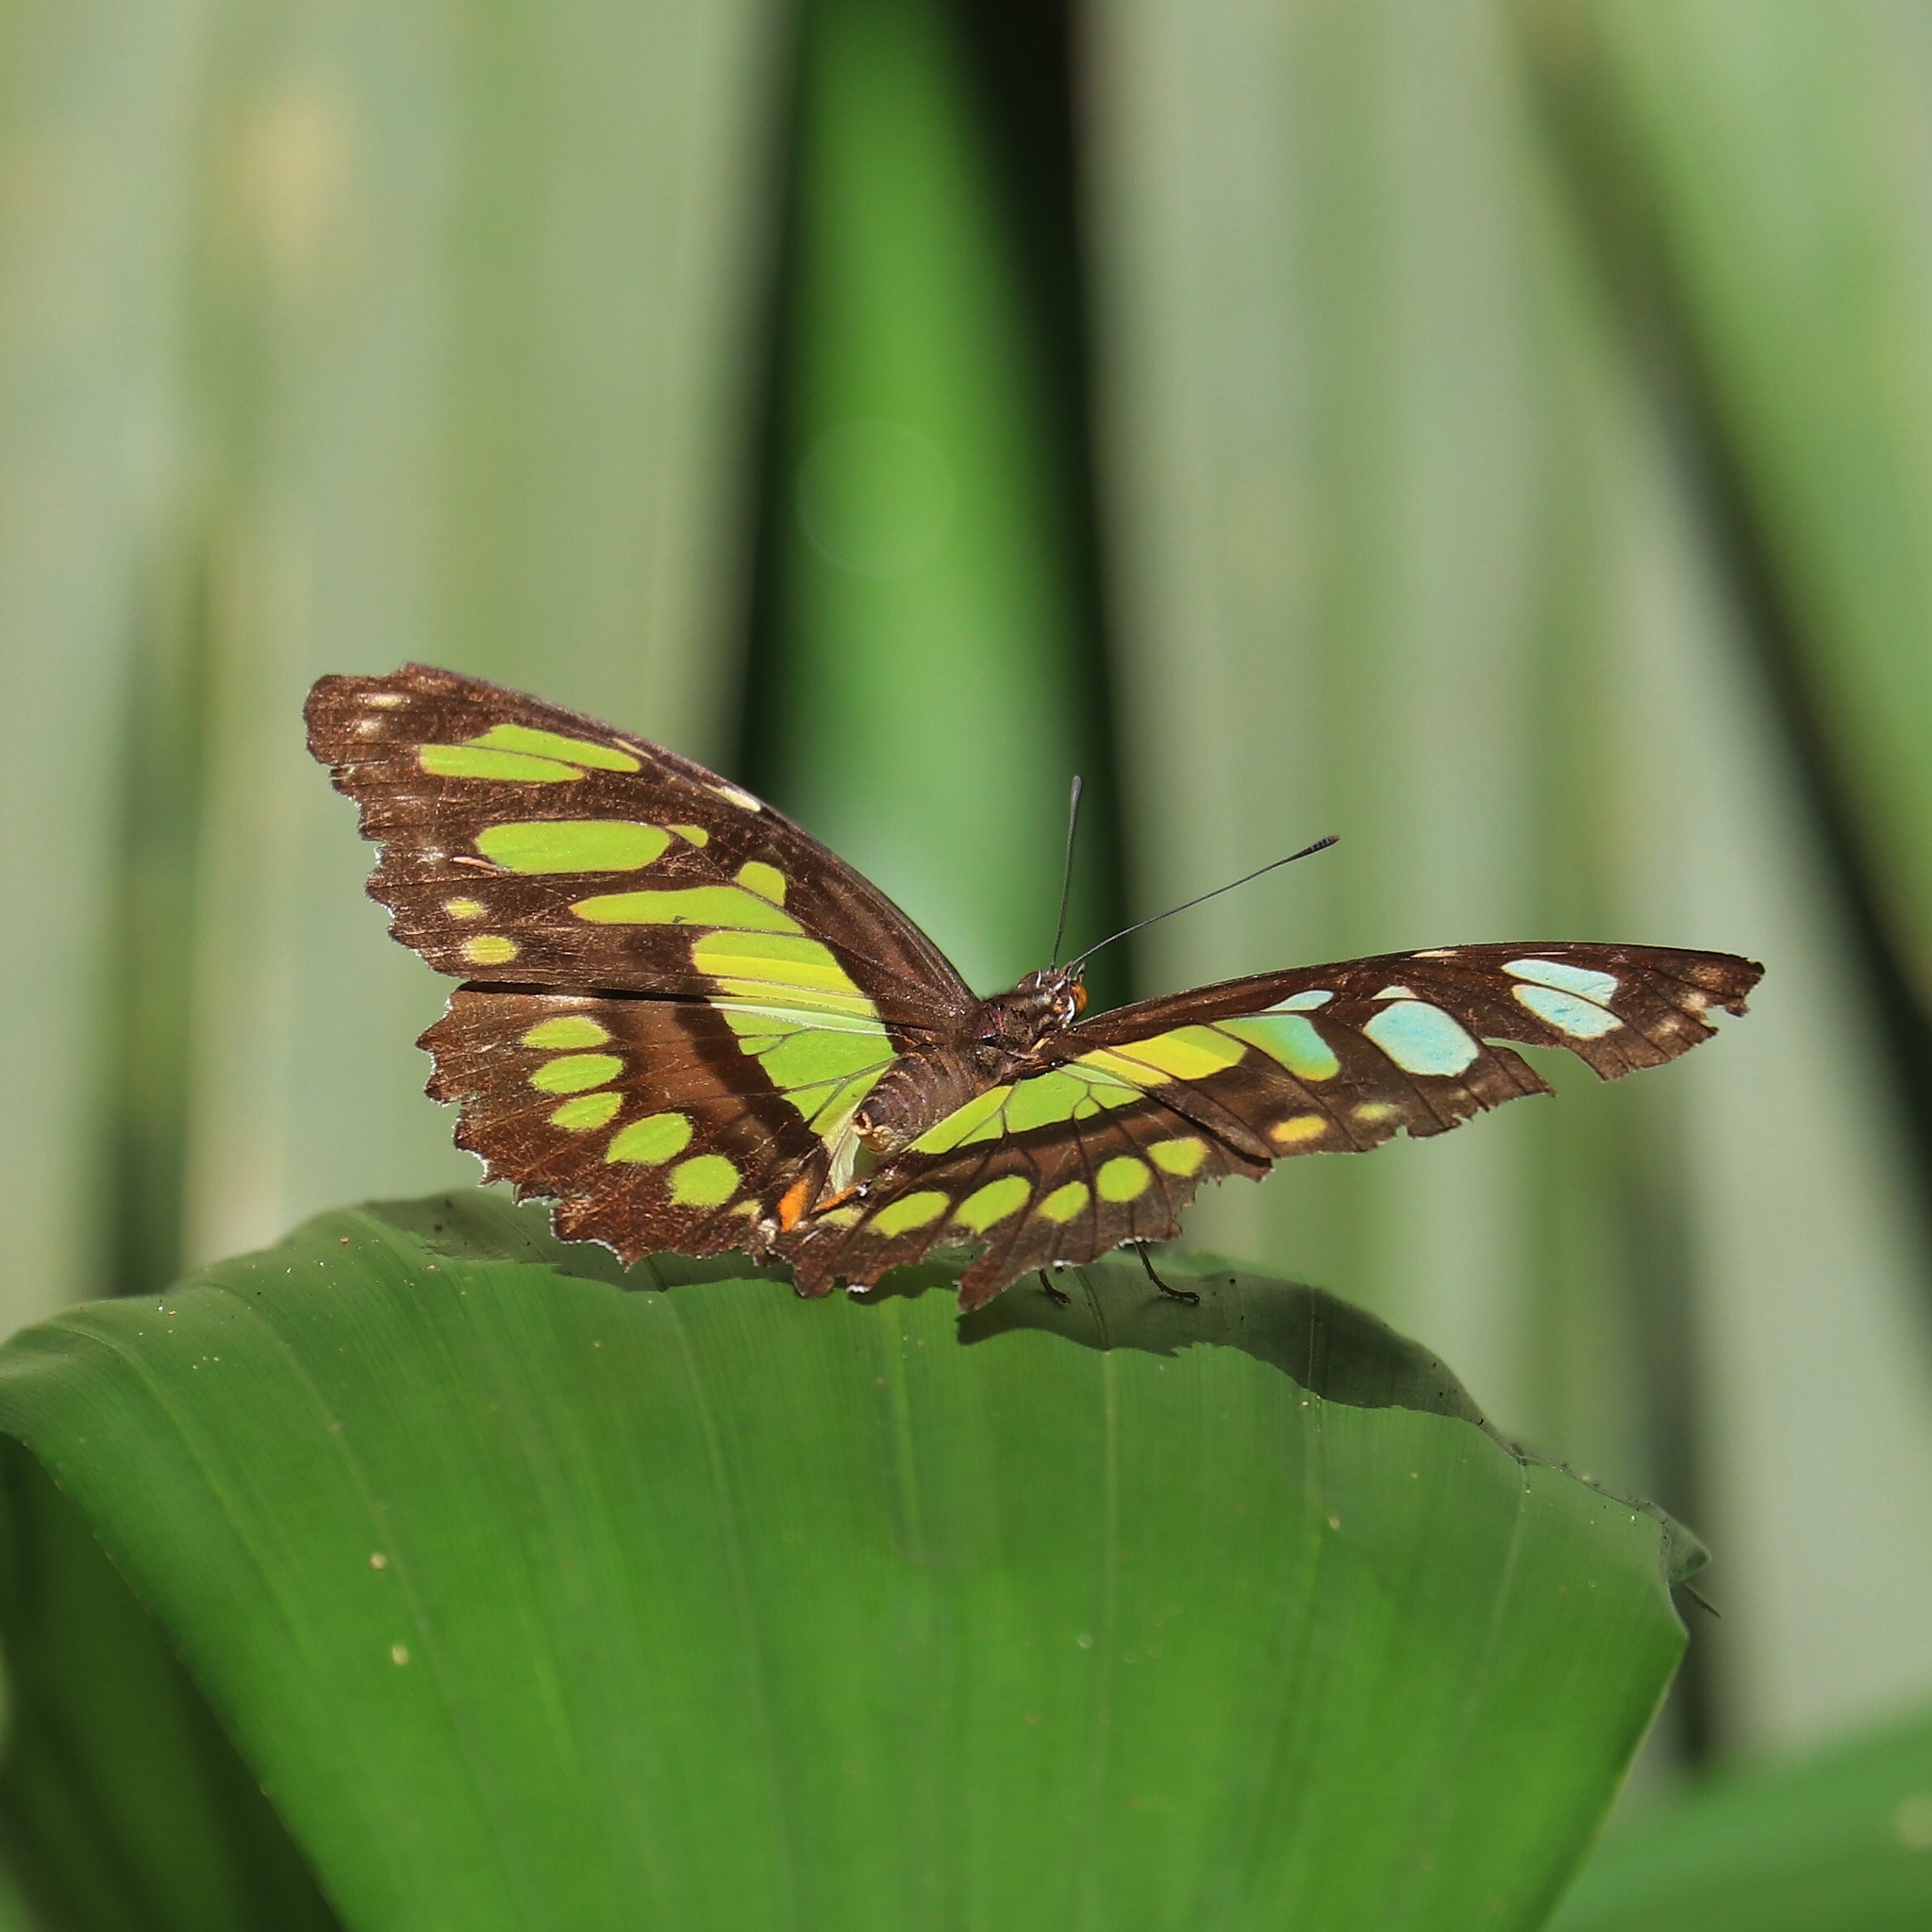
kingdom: Animalia
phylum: Arthropoda
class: Insecta
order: Lepidoptera
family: Nymphalidae
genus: Siproeta
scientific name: Siproeta stelenes
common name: Malachite
